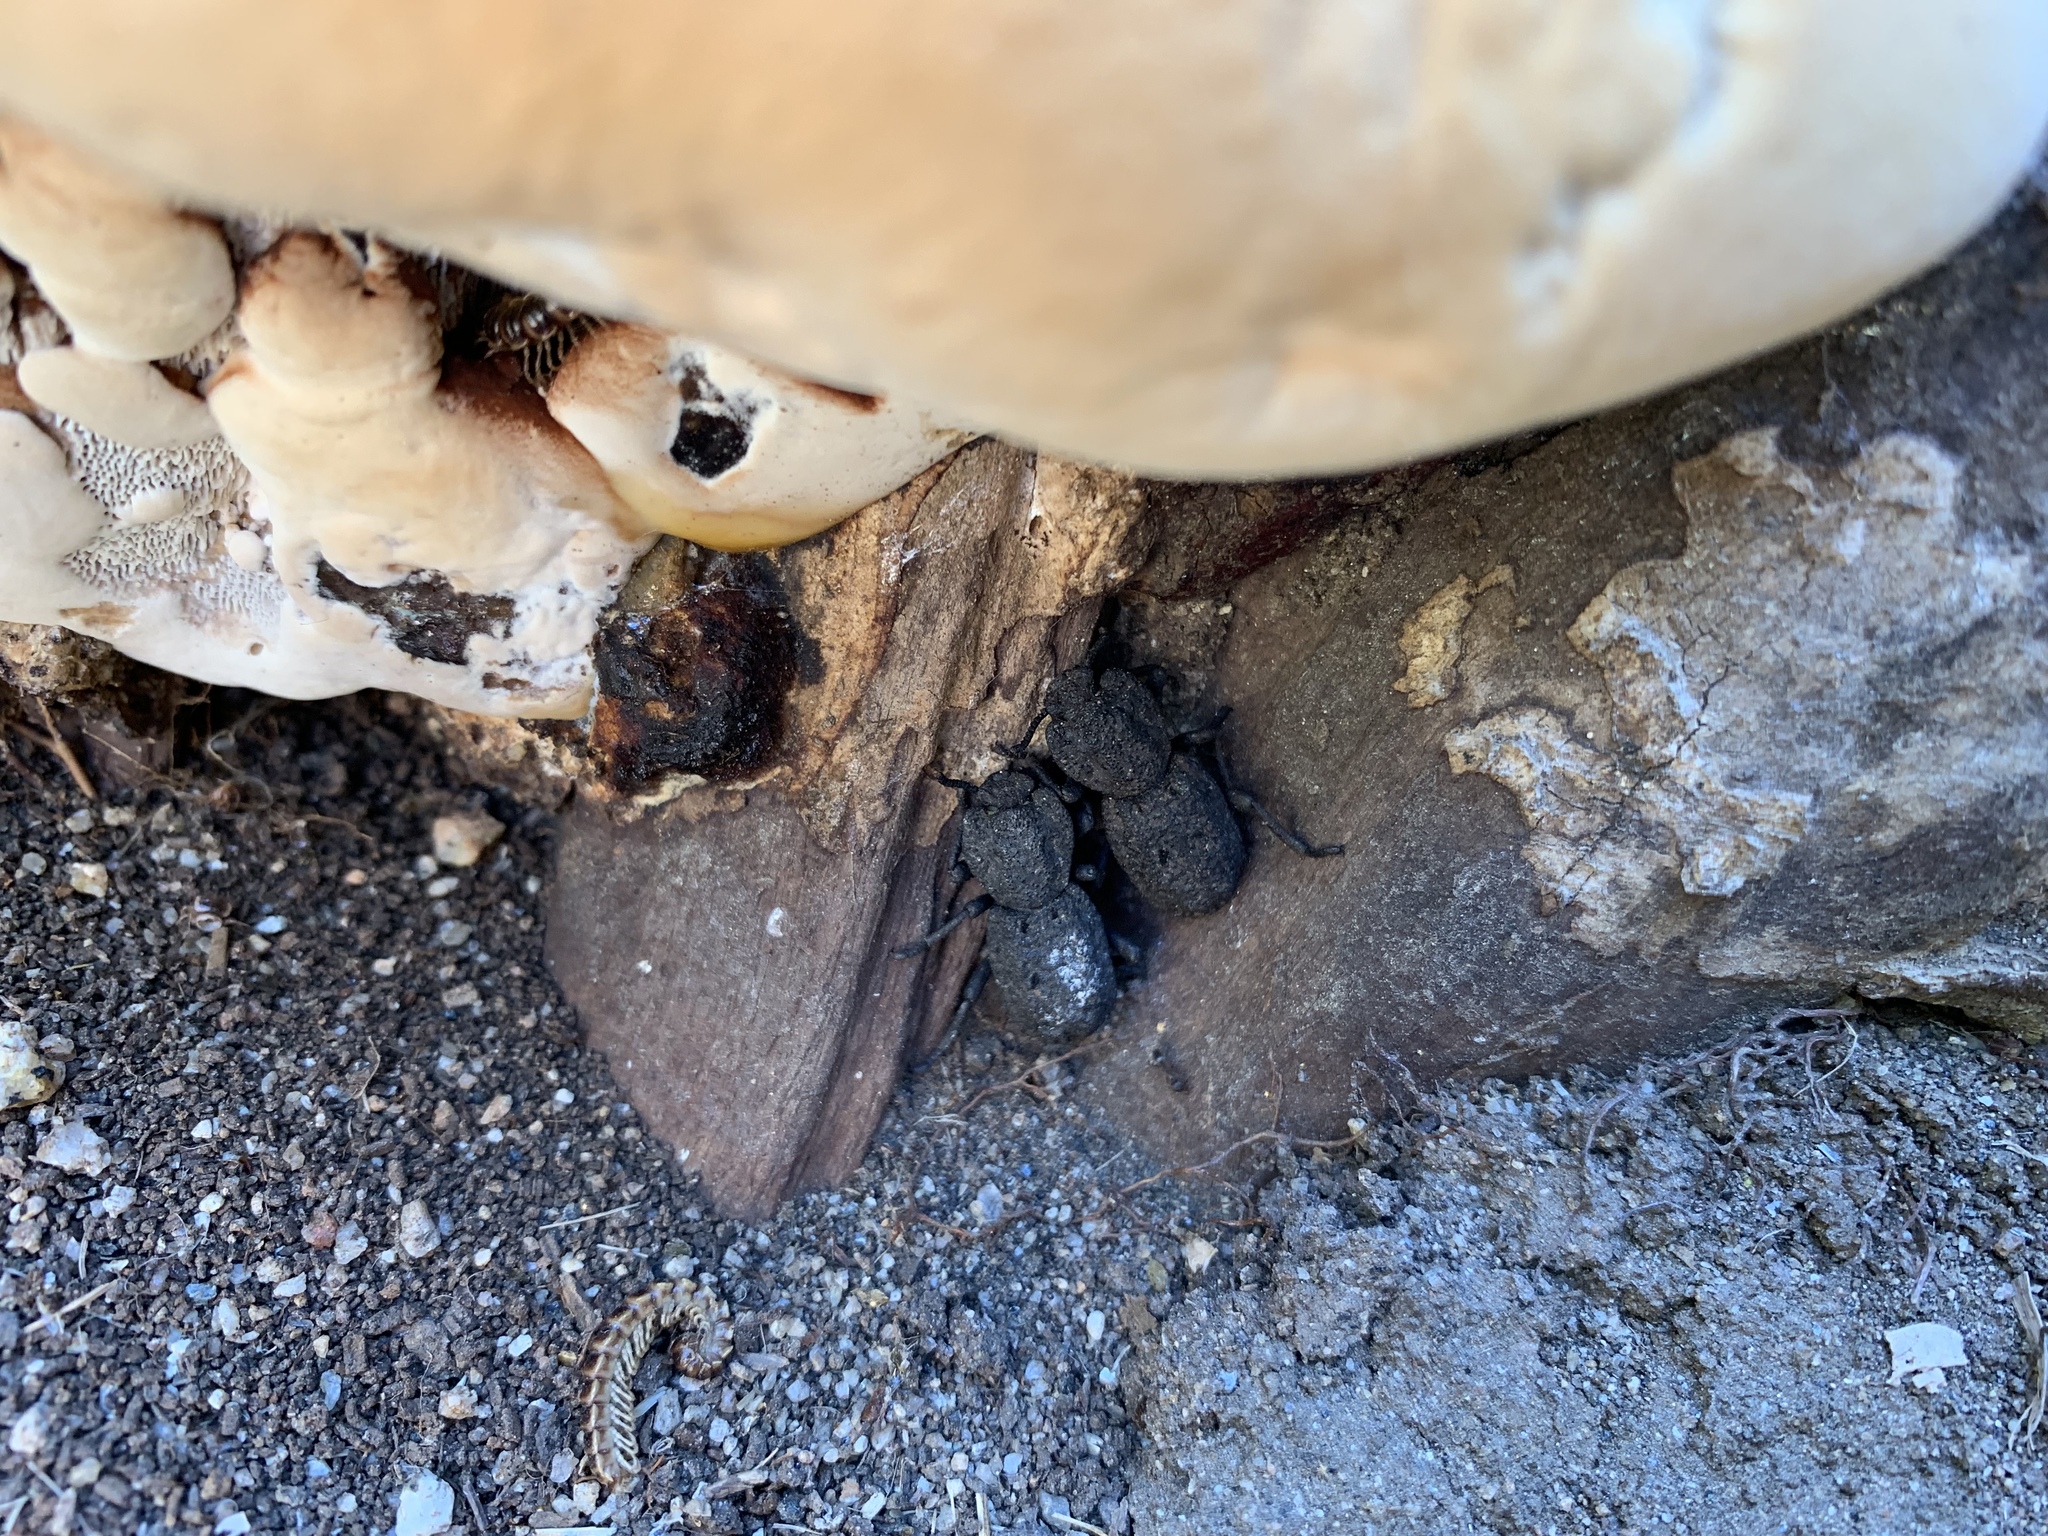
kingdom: Animalia
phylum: Arthropoda
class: Insecta
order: Coleoptera
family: Zopheridae
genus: Phloeodes
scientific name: Phloeodes diabolicus
